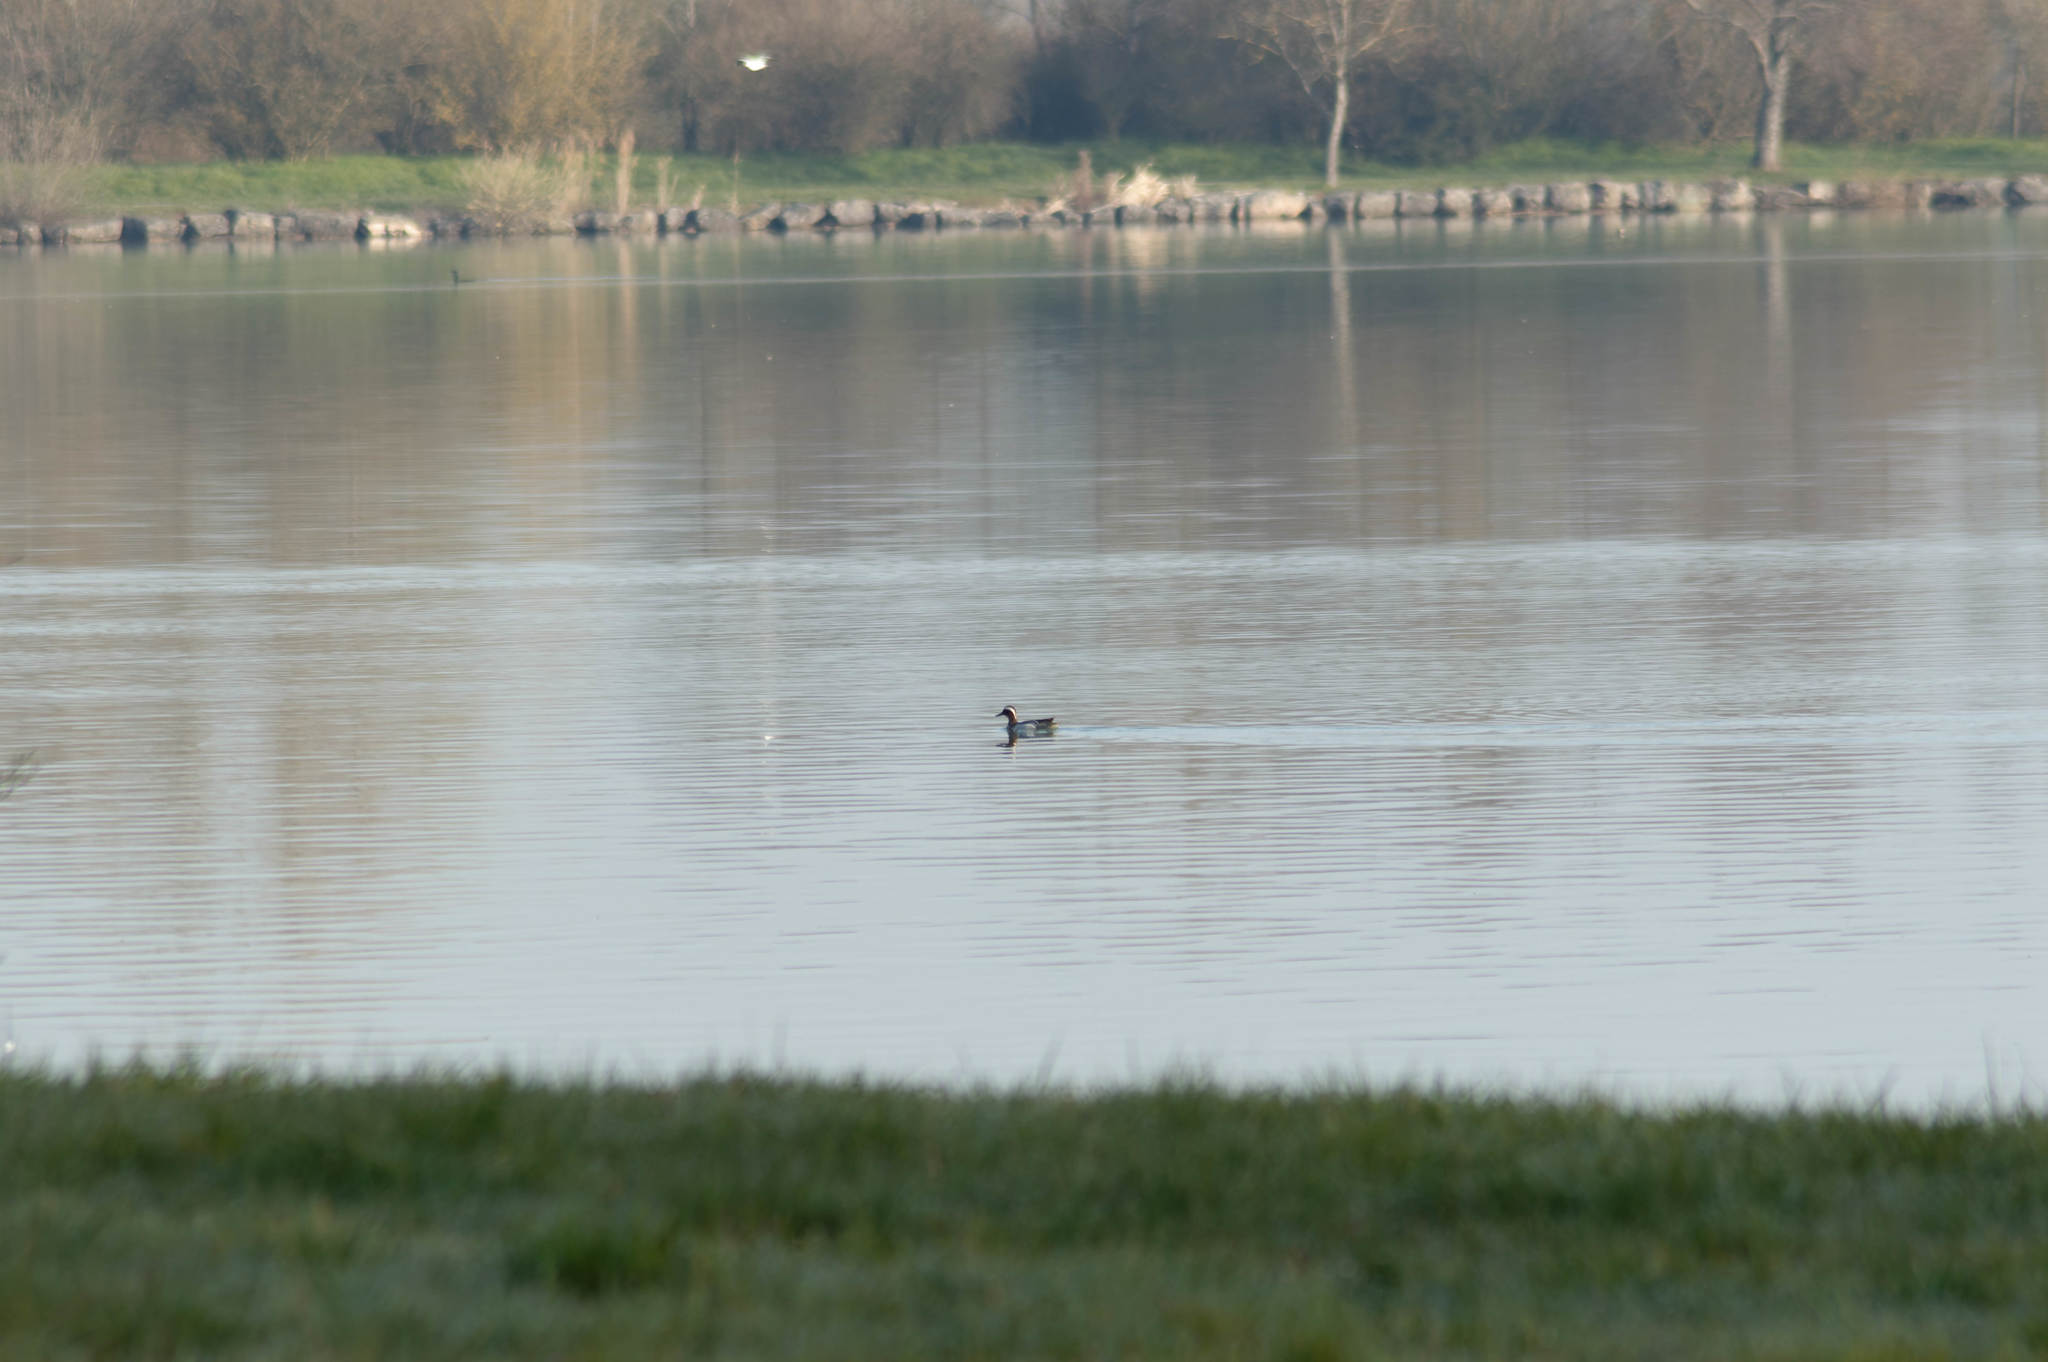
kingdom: Animalia
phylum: Chordata
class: Aves
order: Anseriformes
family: Anatidae
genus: Spatula
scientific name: Spatula querquedula
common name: Garganey
